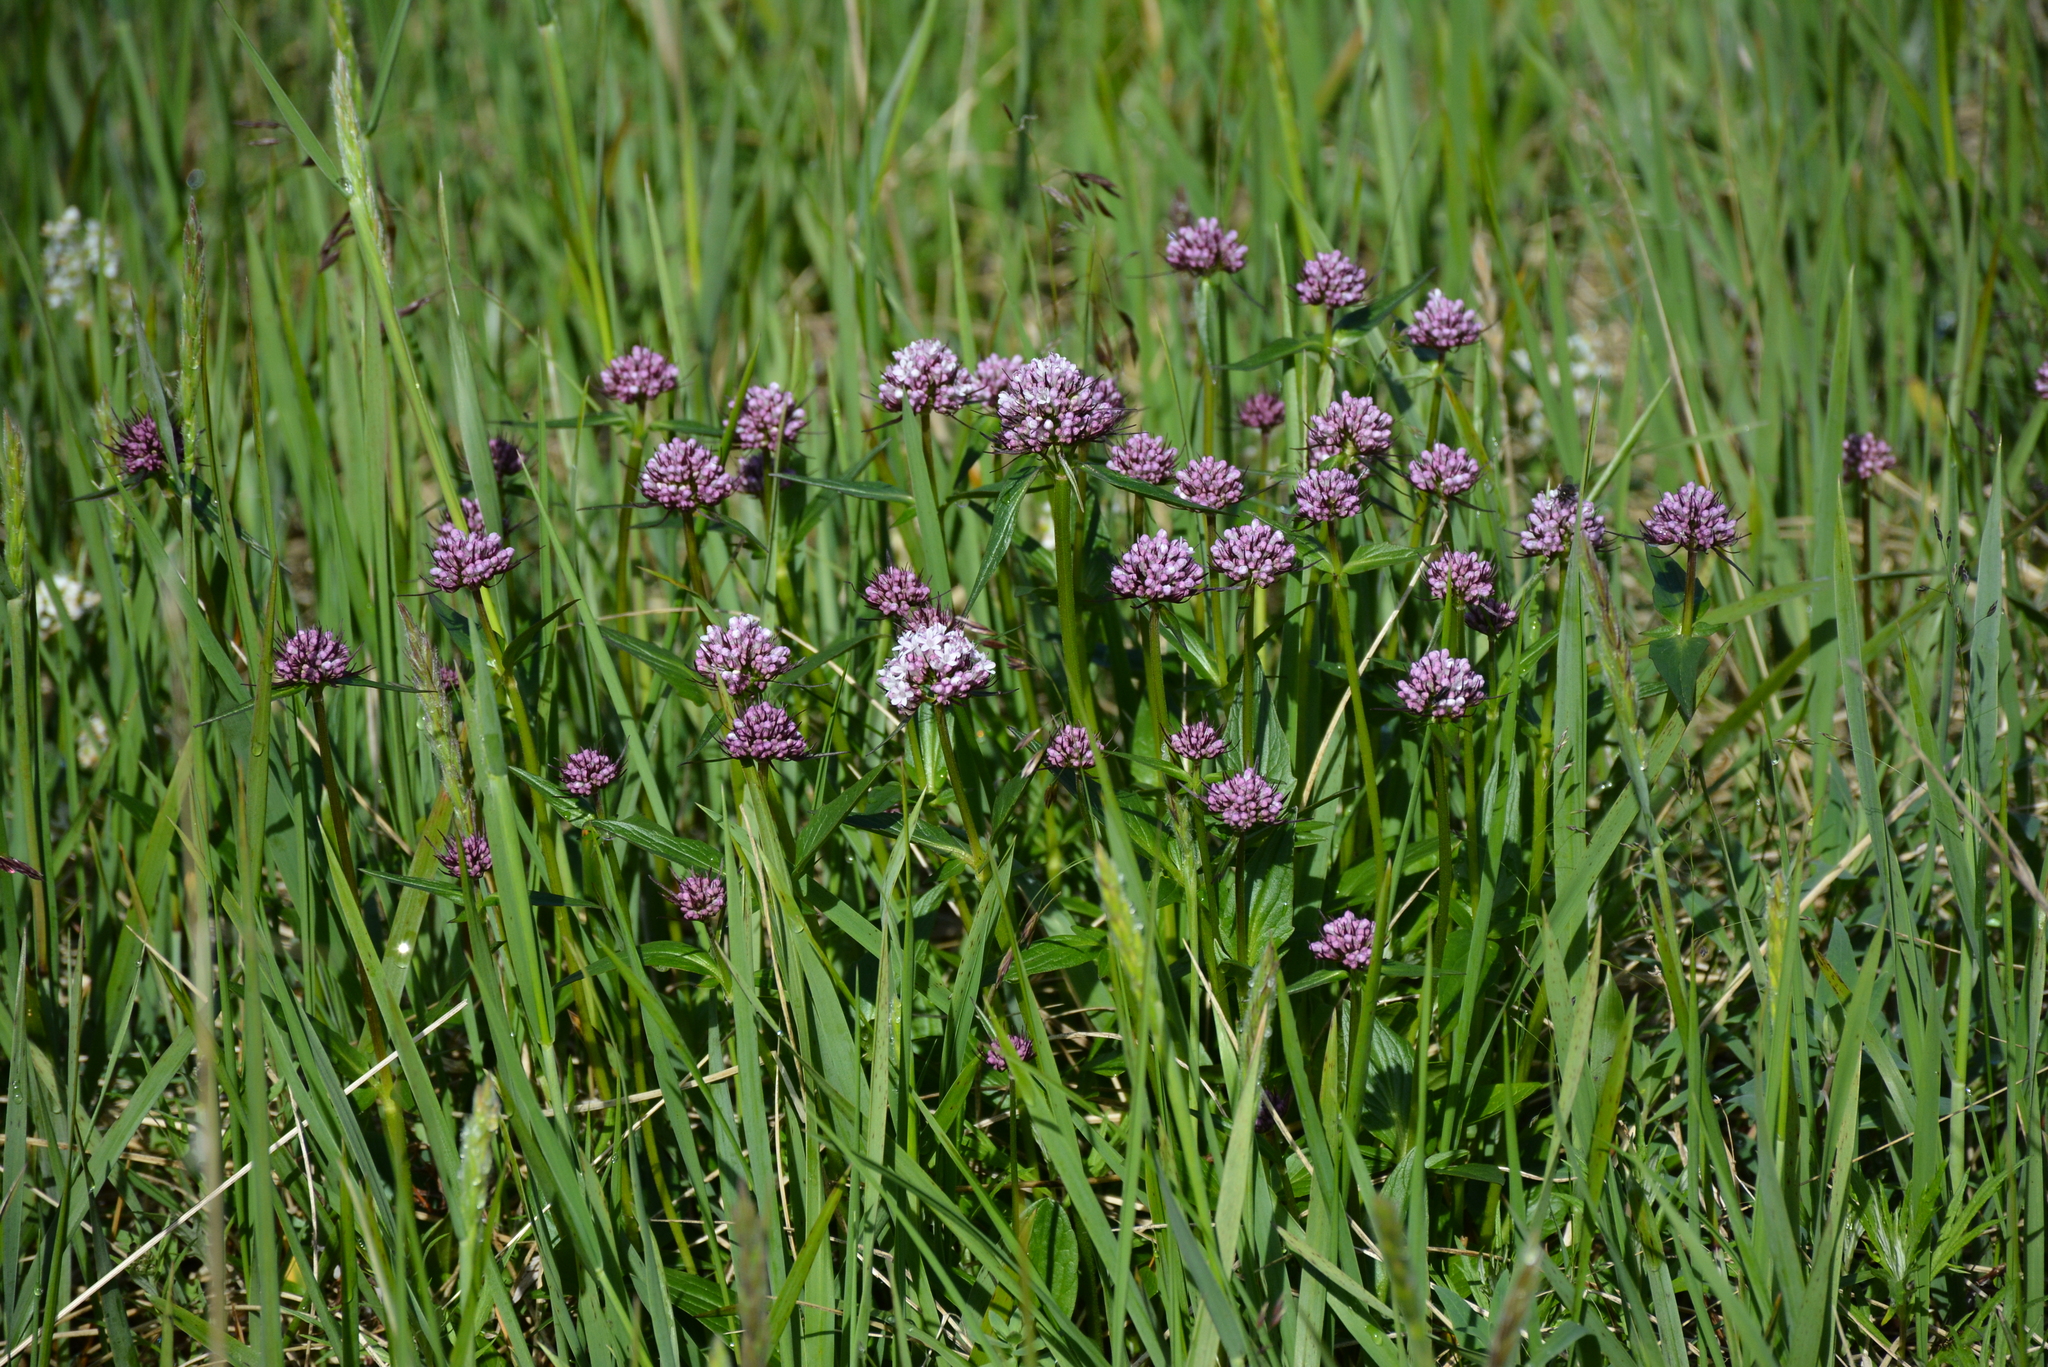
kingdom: Plantae
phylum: Tracheophyta
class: Magnoliopsida
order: Dipsacales
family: Caprifoliaceae
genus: Valeriana
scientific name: Valeriana capitata
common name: Capitate valerian
